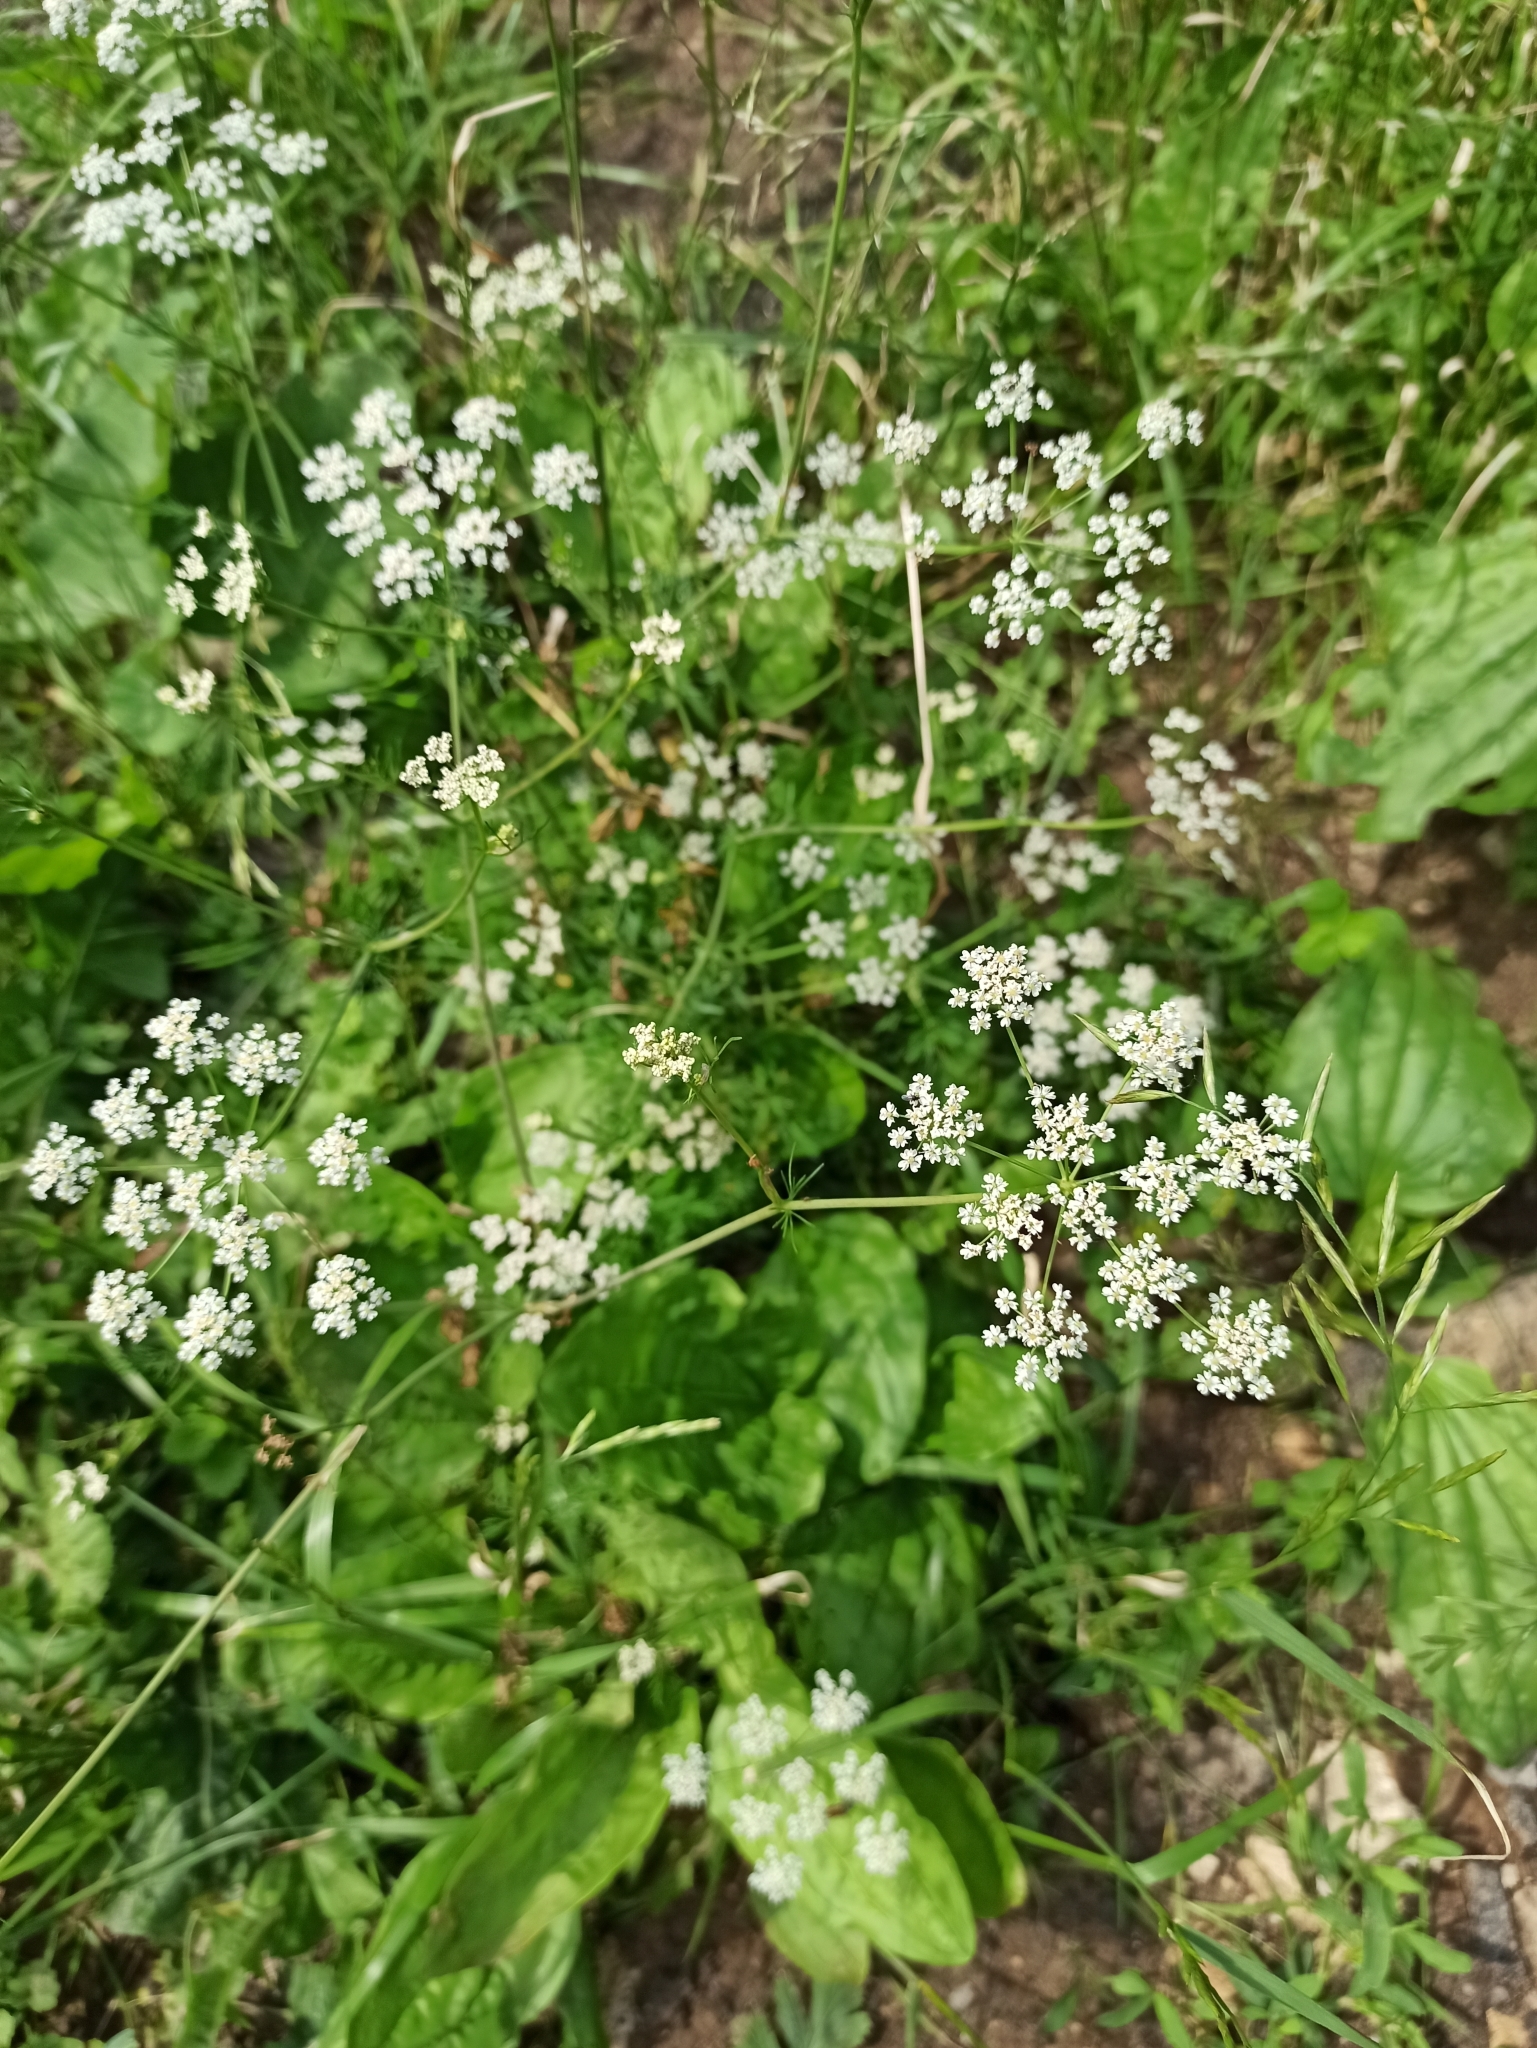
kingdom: Plantae
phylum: Tracheophyta
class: Magnoliopsida
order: Apiales
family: Apiaceae
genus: Carum
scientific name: Carum carvi
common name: Caraway
